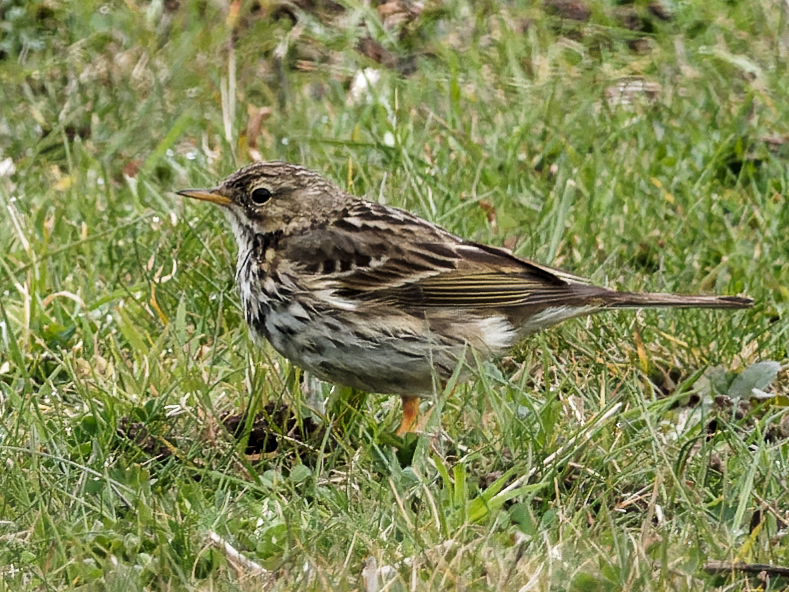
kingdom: Animalia
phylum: Chordata
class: Aves
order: Passeriformes
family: Motacillidae
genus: Anthus
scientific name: Anthus pratensis
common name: Meadow pipit
